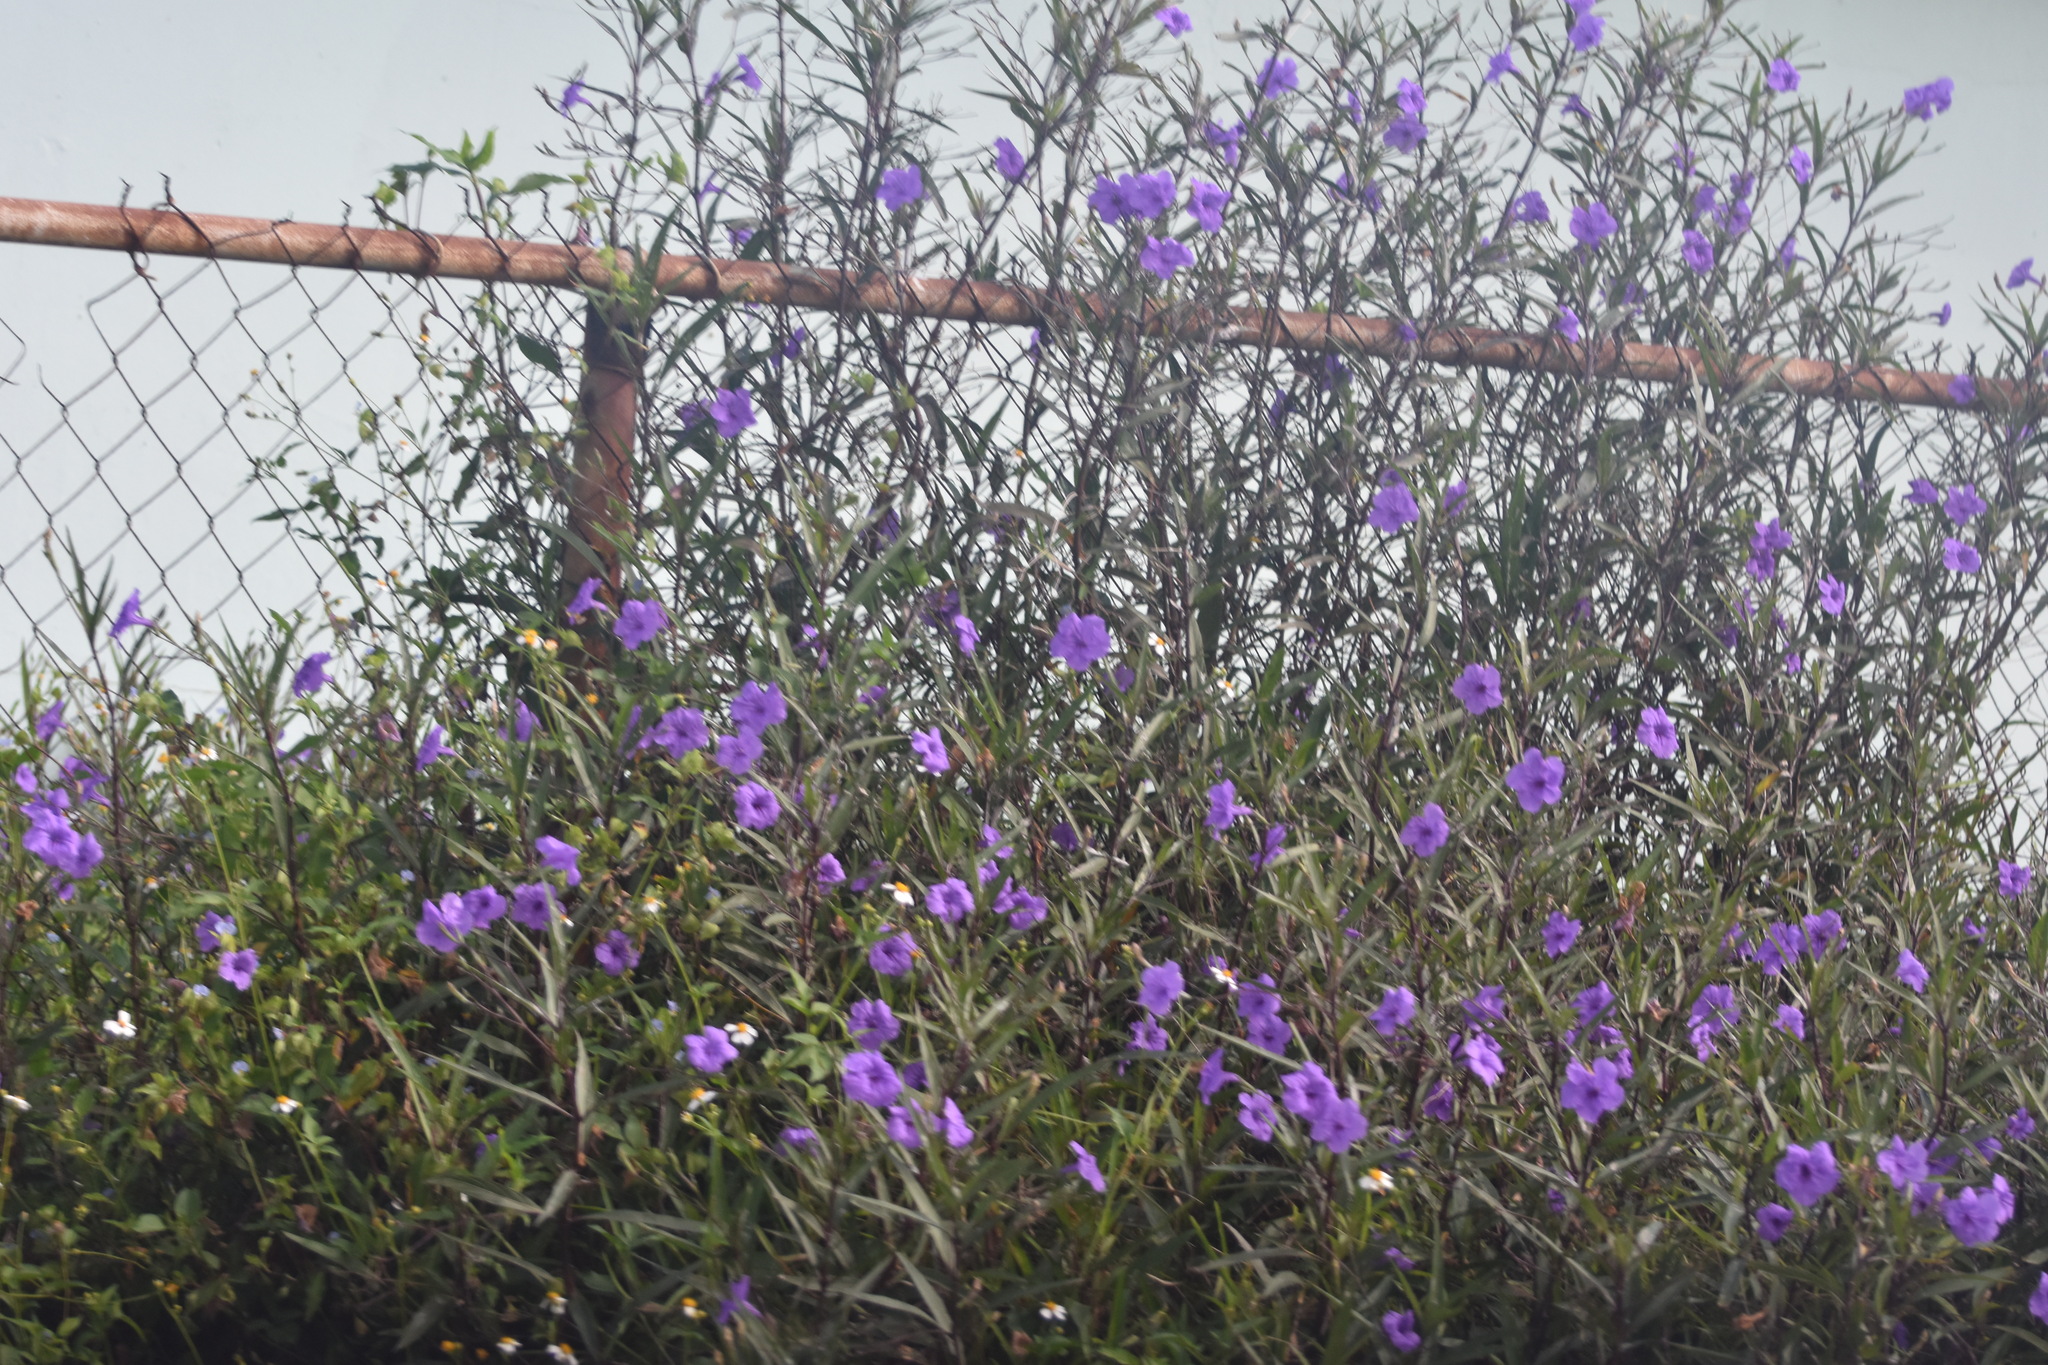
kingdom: Plantae
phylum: Tracheophyta
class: Magnoliopsida
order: Lamiales
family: Acanthaceae
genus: Ruellia
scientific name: Ruellia simplex
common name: Softseed wild petunia
